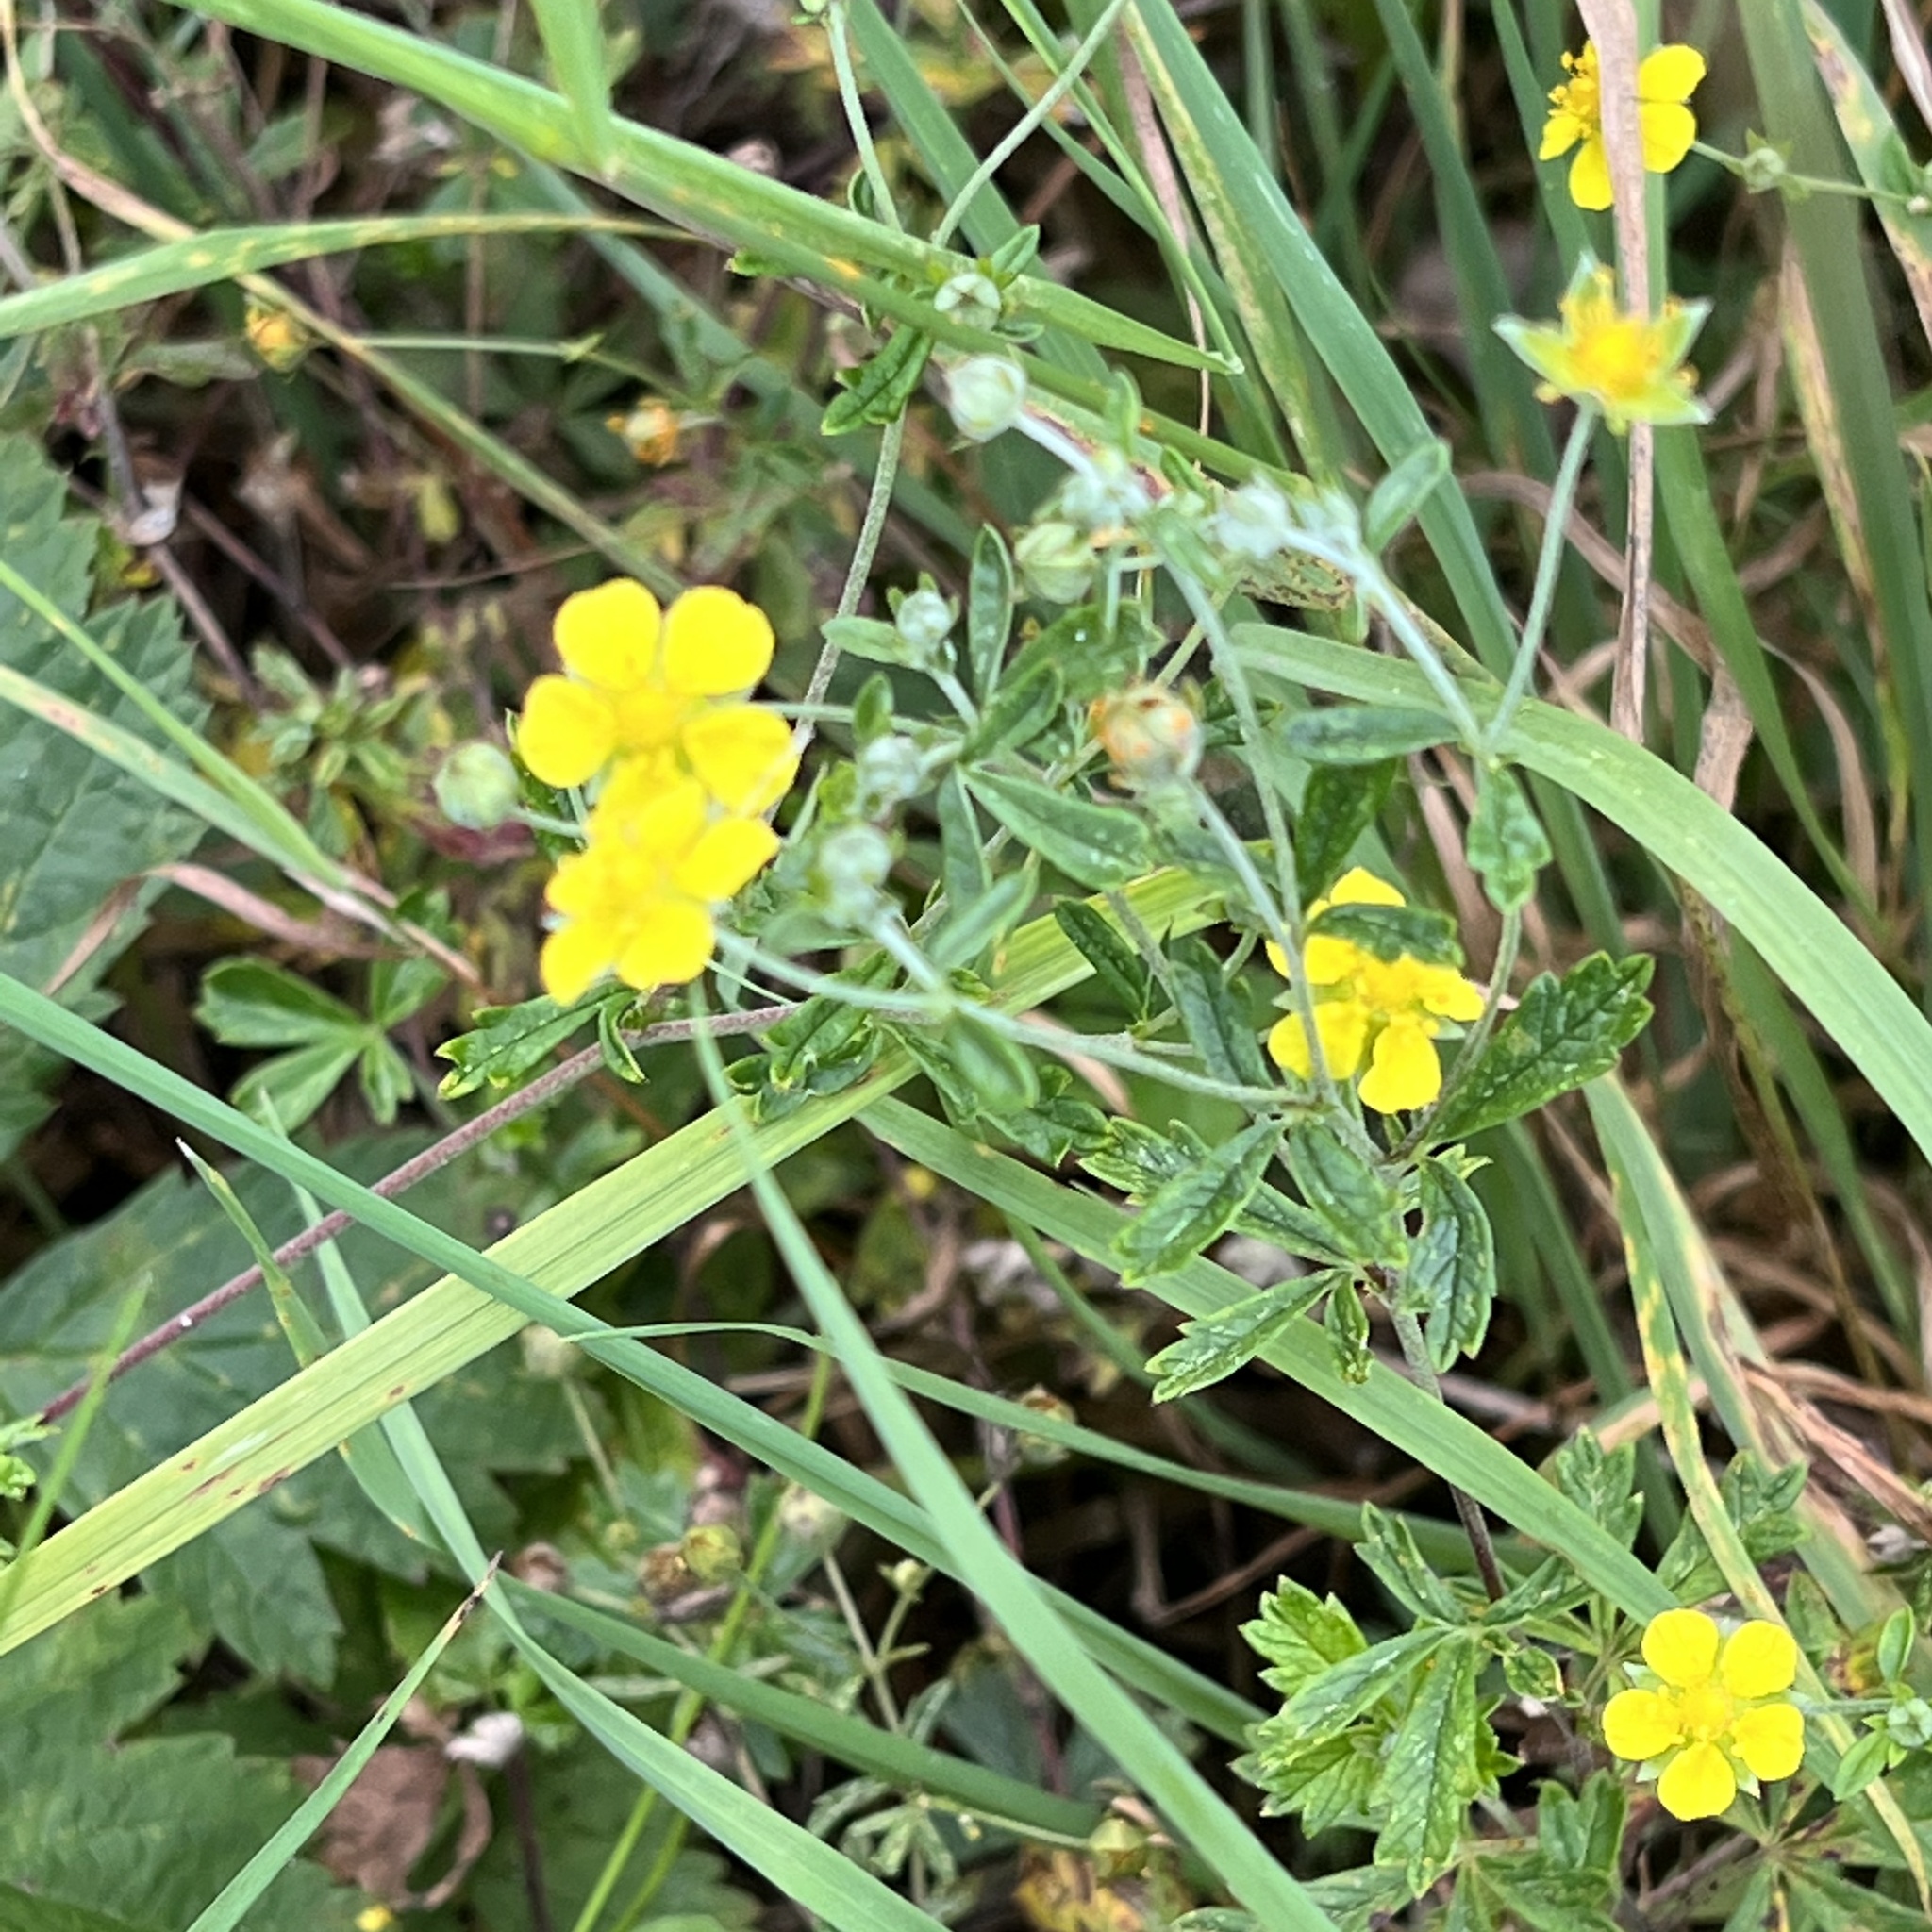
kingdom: Plantae
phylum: Tracheophyta
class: Magnoliopsida
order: Rosales
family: Rosaceae
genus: Potentilla
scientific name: Potentilla argentea
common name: Hoary cinquefoil
